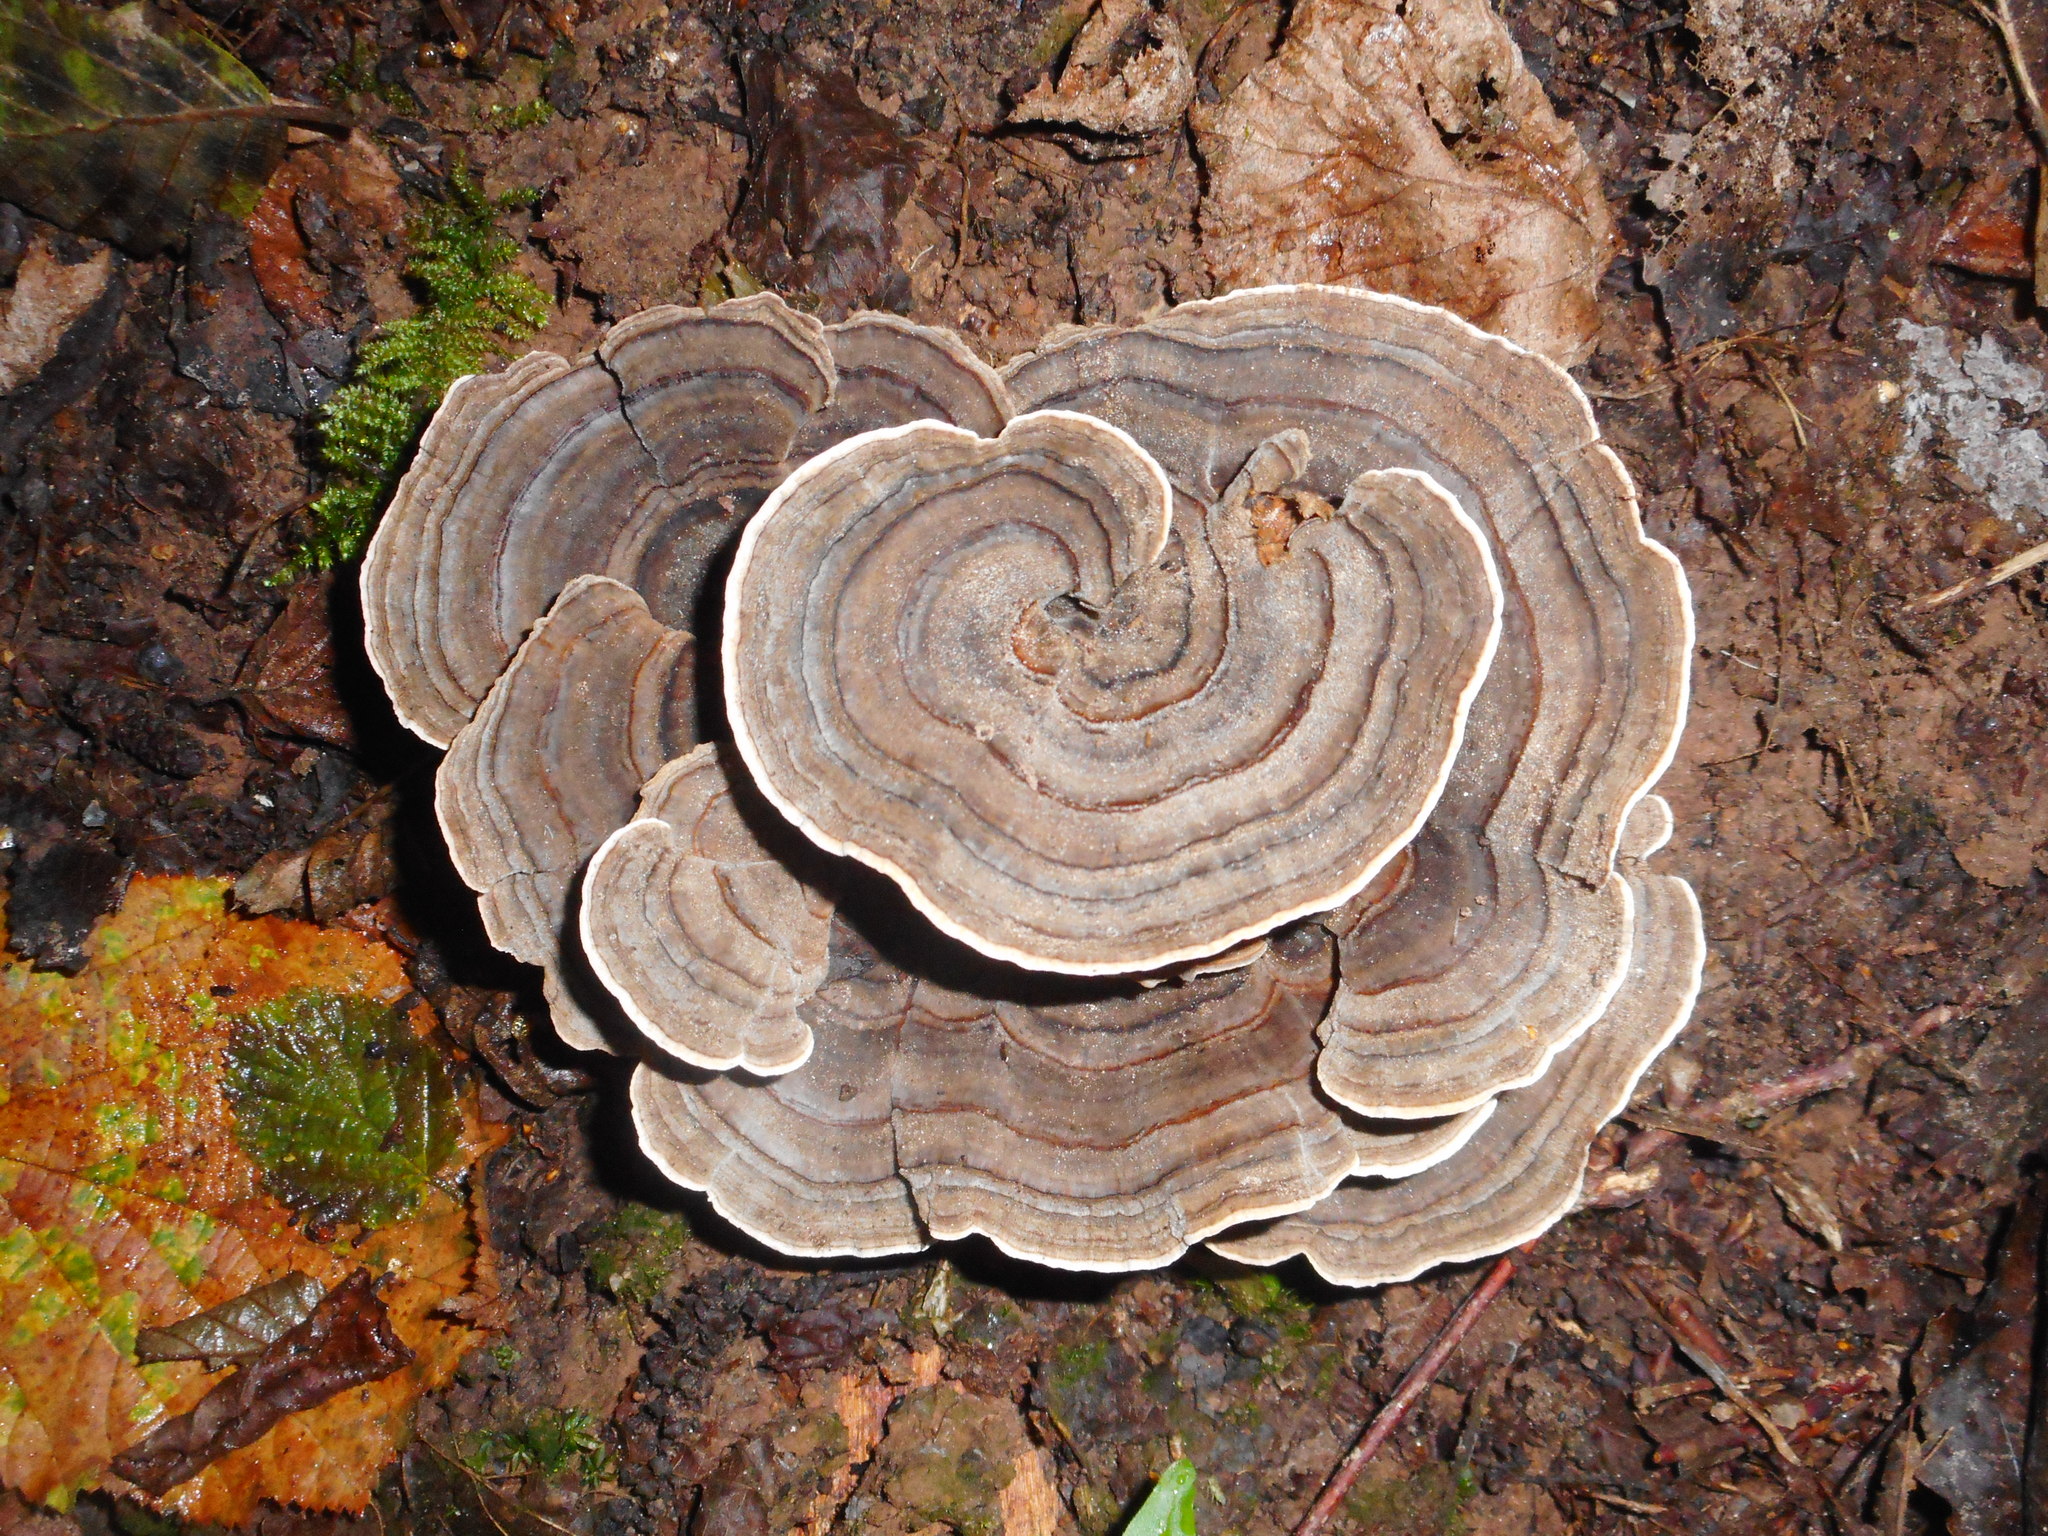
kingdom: Fungi
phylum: Basidiomycota
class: Agaricomycetes
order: Polyporales
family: Polyporaceae
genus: Trametes
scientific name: Trametes versicolor
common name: Turkeytail
